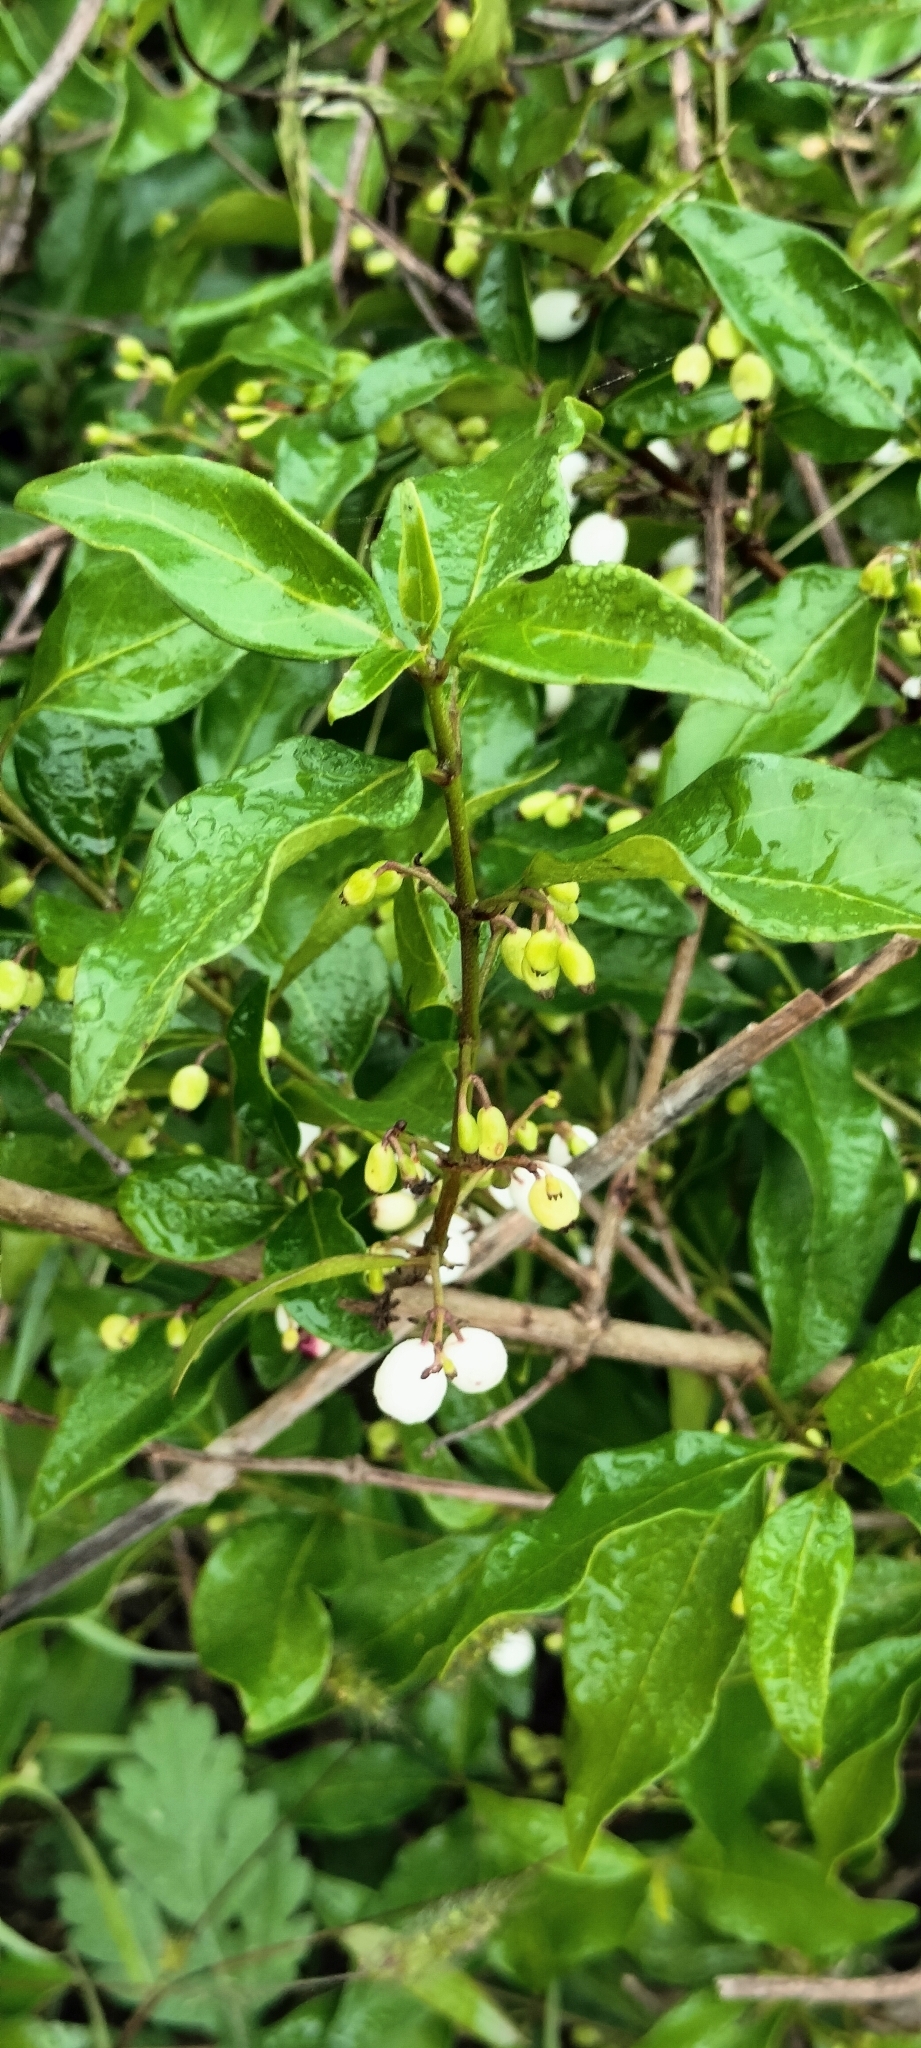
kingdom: Plantae
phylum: Tracheophyta
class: Magnoliopsida
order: Gentianales
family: Rubiaceae
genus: Chiococca
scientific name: Chiococca alba
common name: Snowberry
